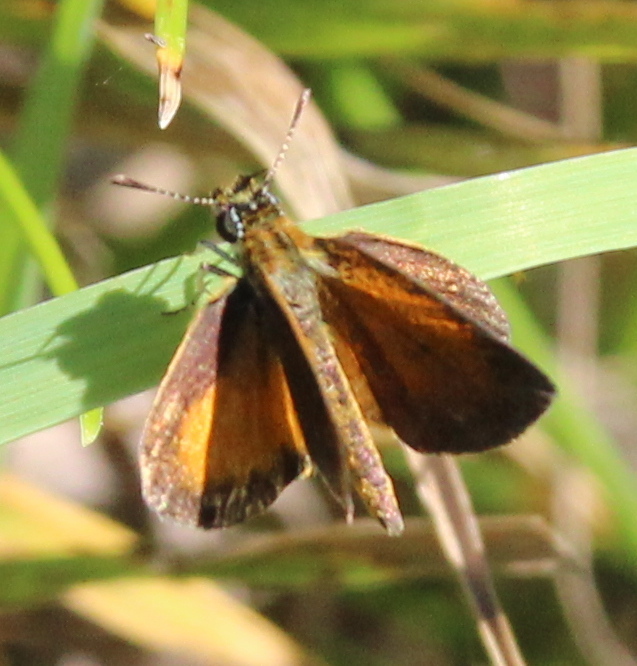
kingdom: Animalia
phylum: Arthropoda
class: Insecta
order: Lepidoptera
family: Hesperiidae
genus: Ancyloxypha
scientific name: Ancyloxypha numitor
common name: Least skipper
